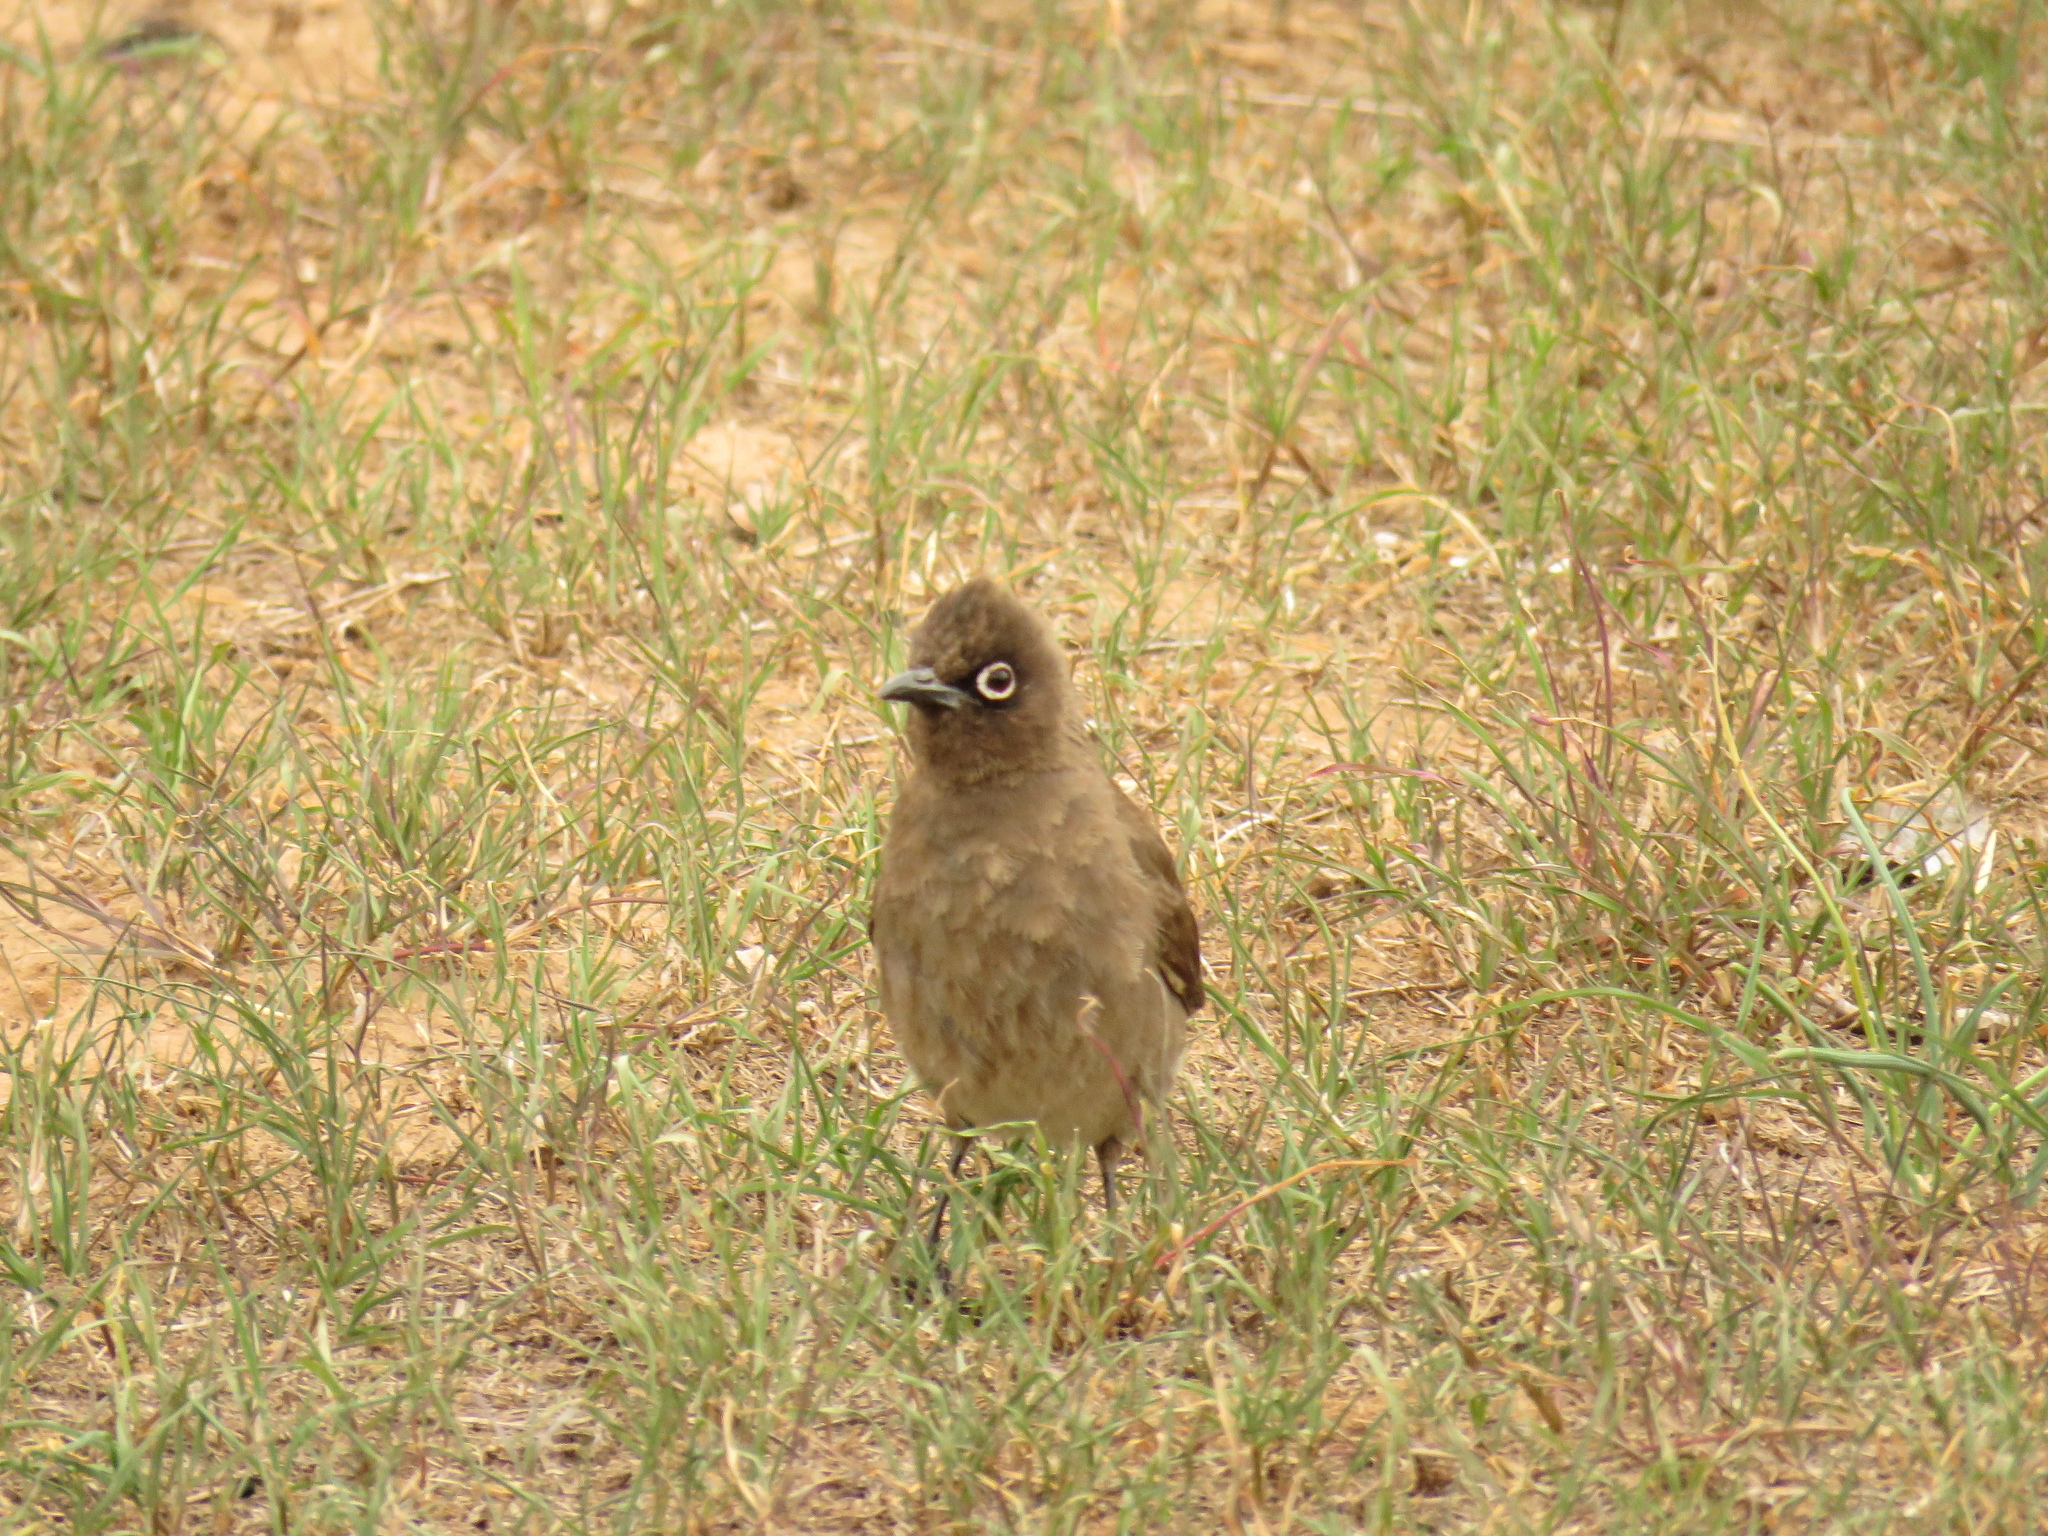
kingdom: Animalia
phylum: Chordata
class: Aves
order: Passeriformes
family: Pycnonotidae
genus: Pycnonotus
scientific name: Pycnonotus capensis
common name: Cape bulbul
